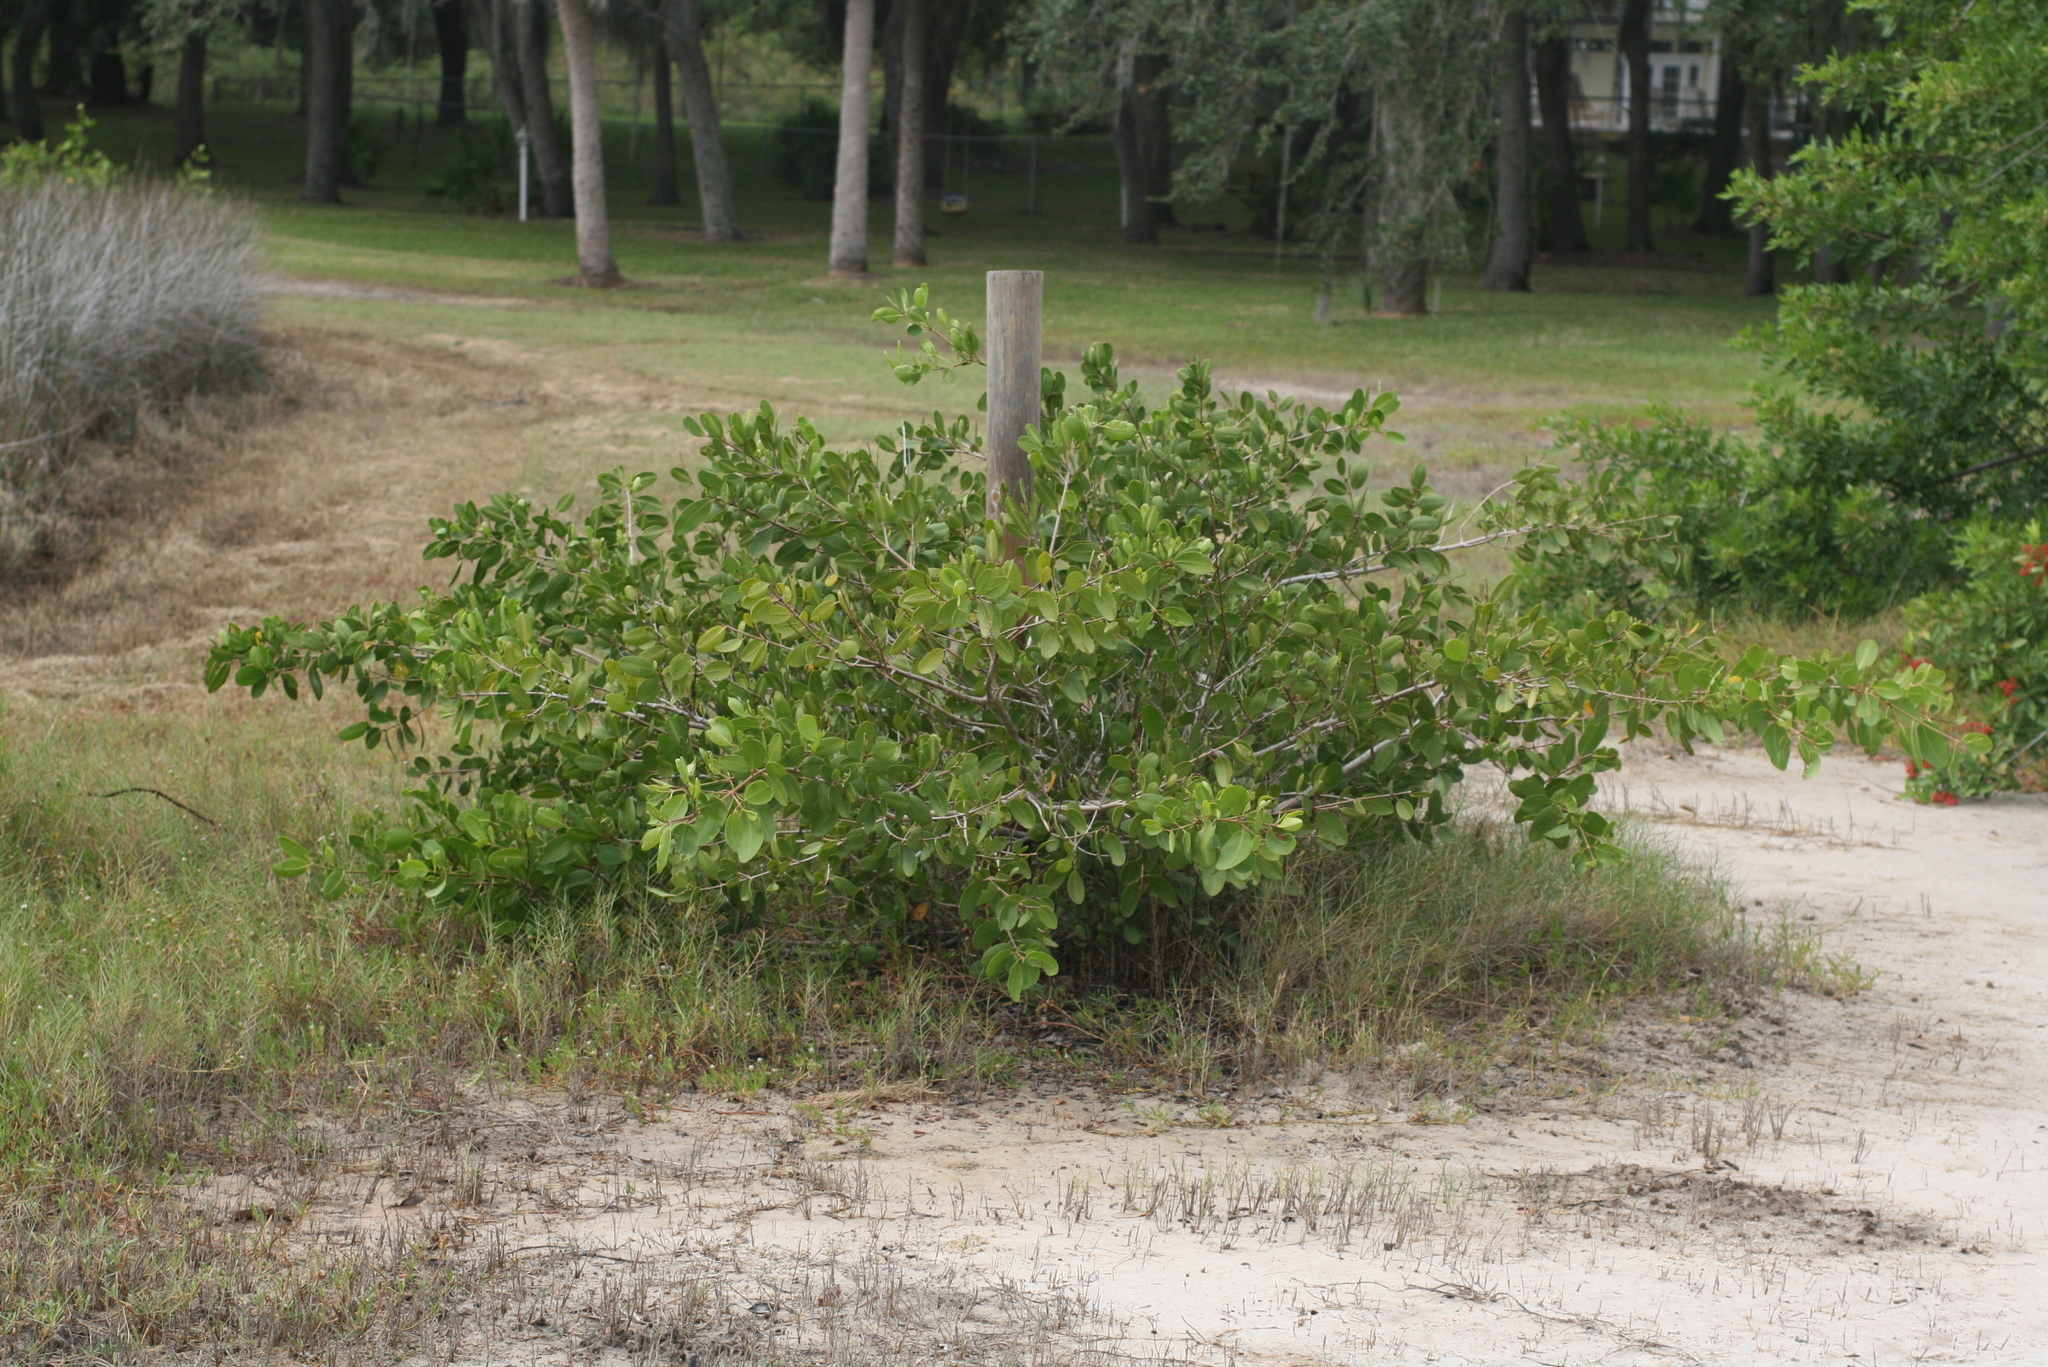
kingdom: Plantae
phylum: Tracheophyta
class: Magnoliopsida
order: Myrtales
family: Combretaceae
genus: Laguncularia
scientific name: Laguncularia racemosa
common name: White mangrove
